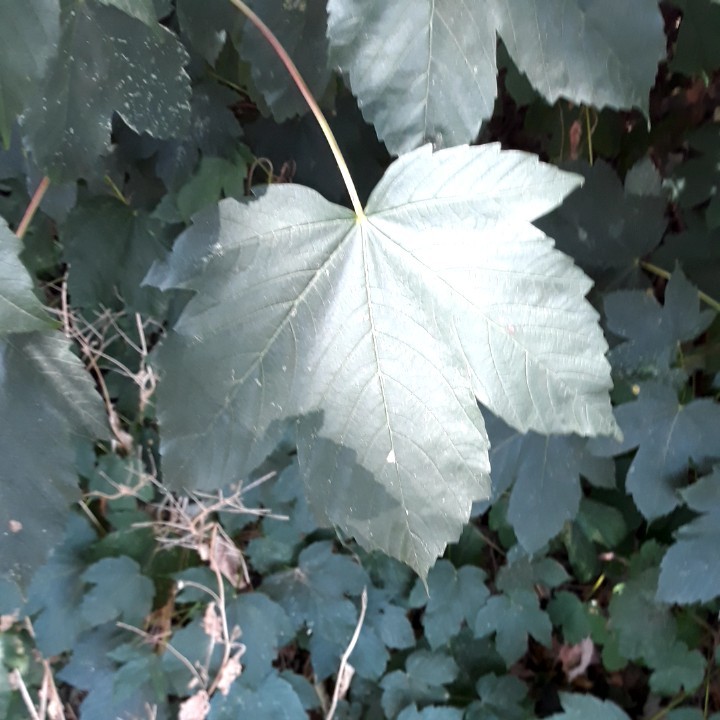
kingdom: Plantae
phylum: Tracheophyta
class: Magnoliopsida
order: Sapindales
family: Sapindaceae
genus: Acer
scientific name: Acer pseudoplatanus
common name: Sycamore
